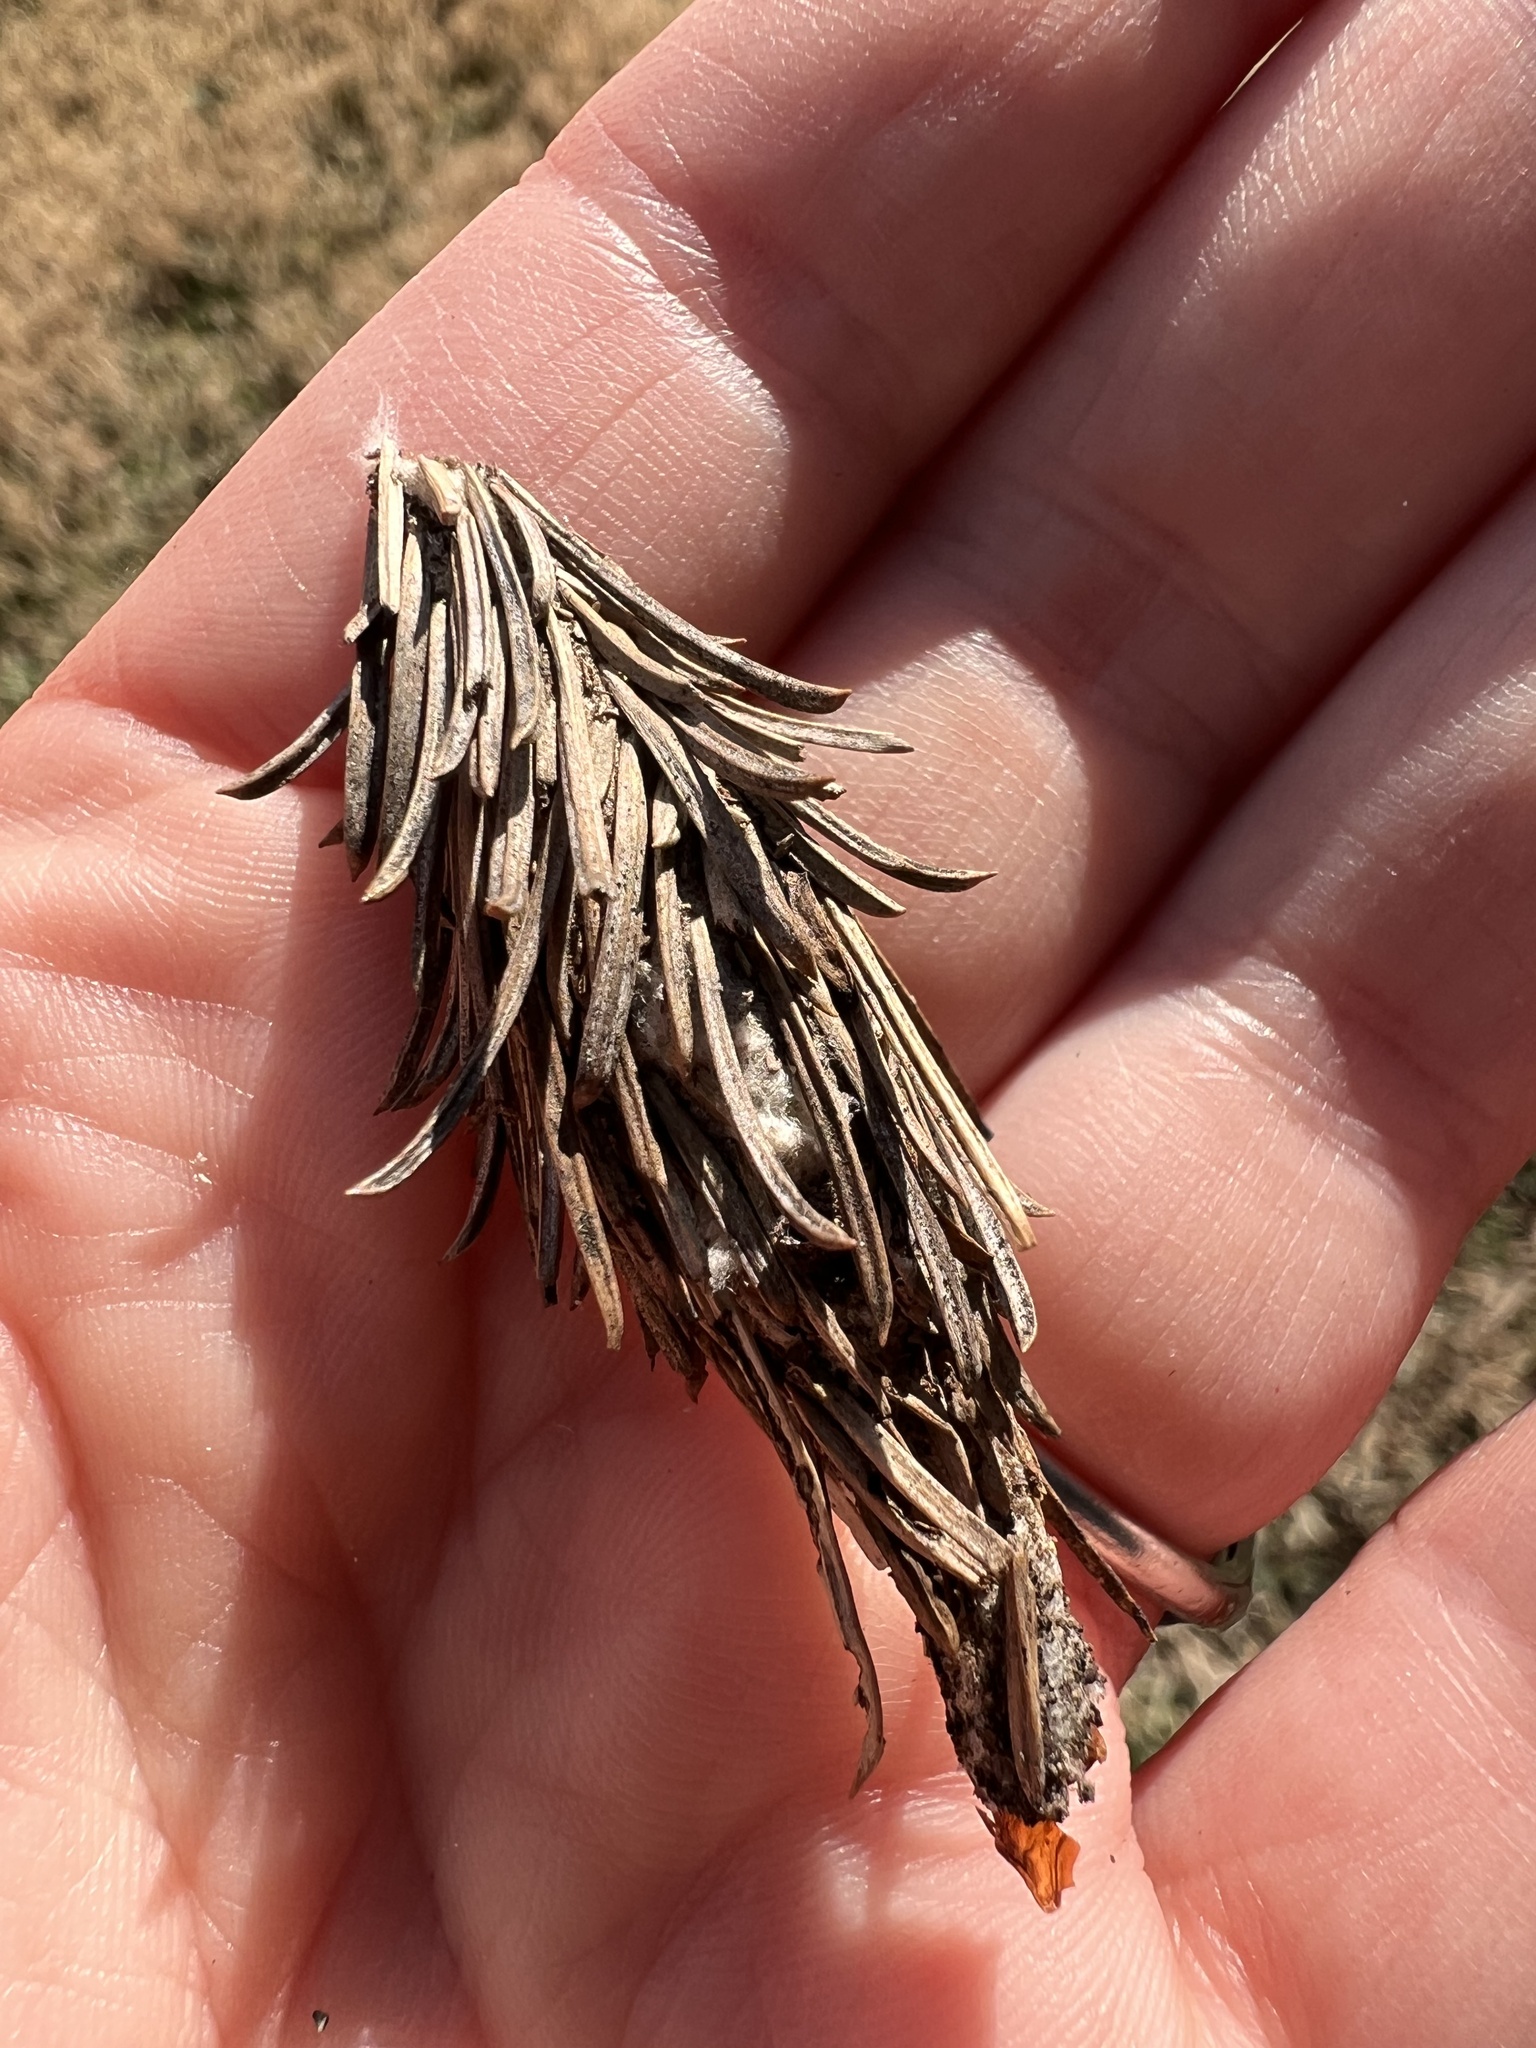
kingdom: Animalia
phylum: Arthropoda
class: Insecta
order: Lepidoptera
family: Psychidae
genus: Thyridopteryx
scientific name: Thyridopteryx ephemeraeformis
